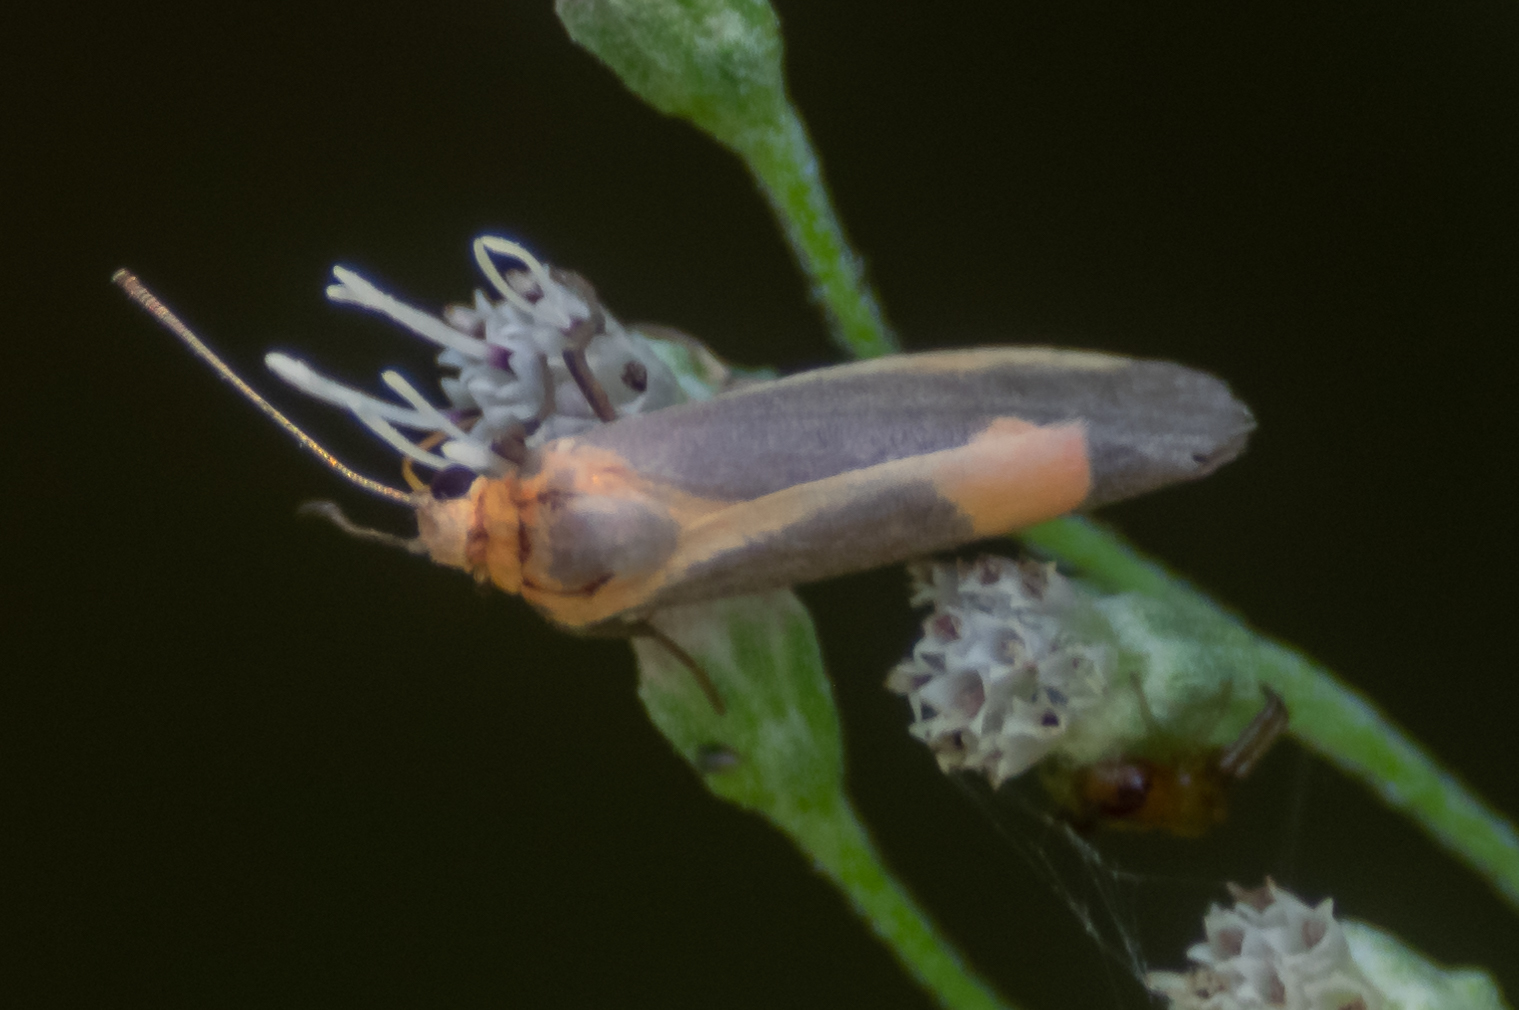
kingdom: Animalia
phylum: Arthropoda
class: Insecta
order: Lepidoptera
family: Erebidae
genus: Cisthene
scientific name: Cisthene plumbea
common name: Lead colored lichen moth
